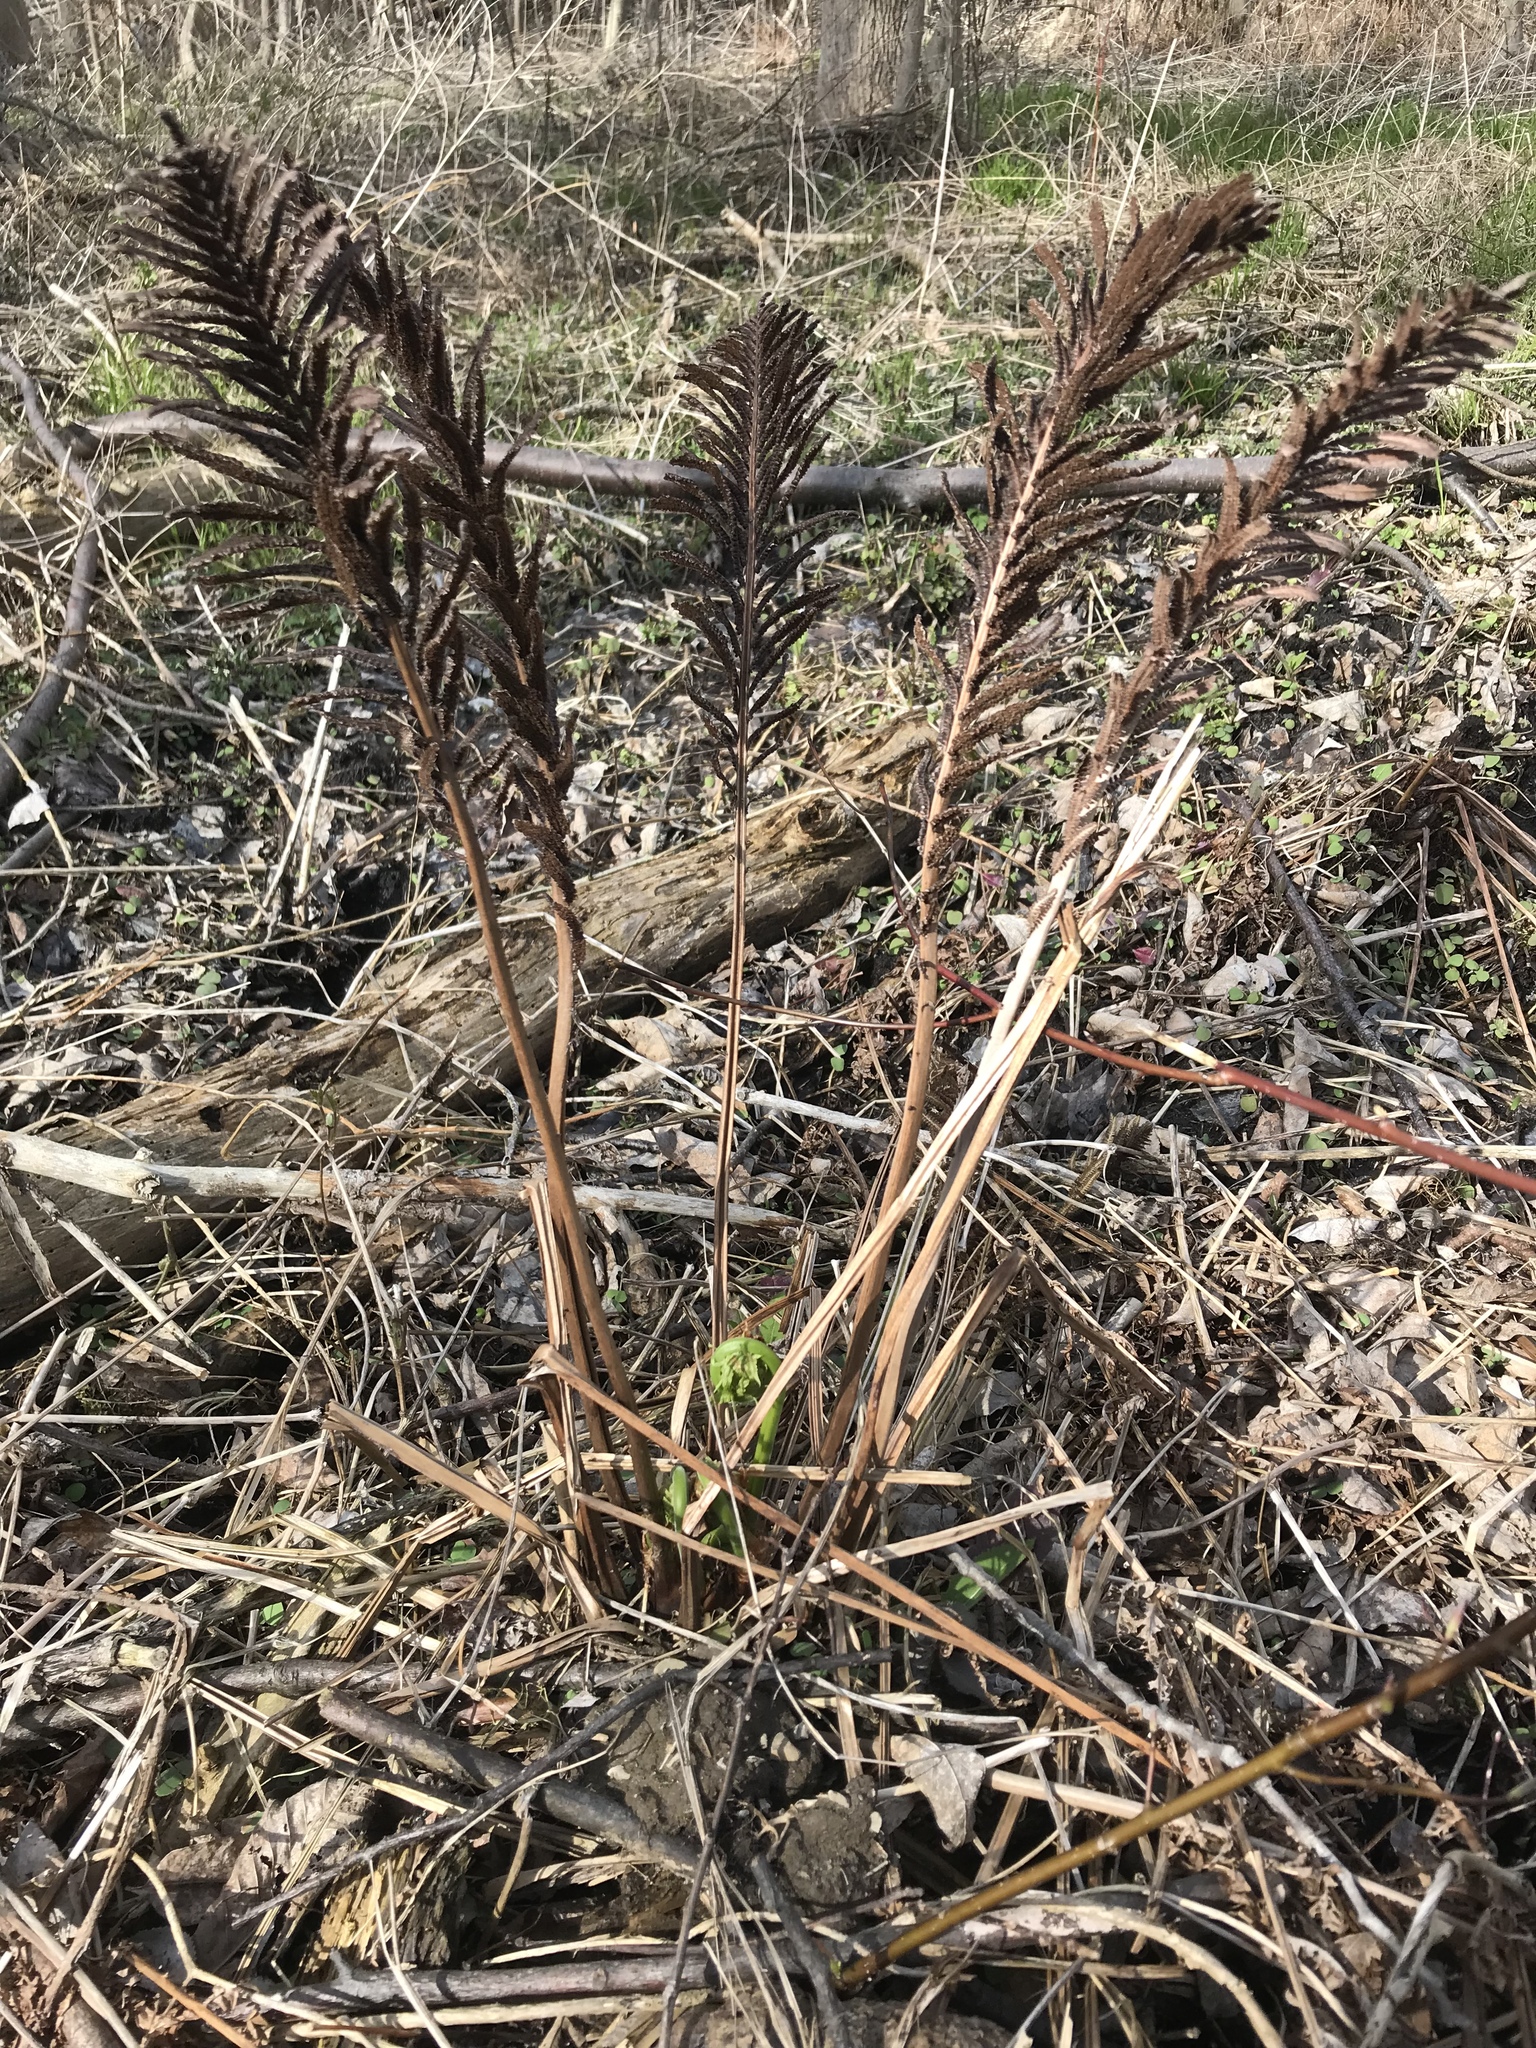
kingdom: Plantae
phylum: Tracheophyta
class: Polypodiopsida
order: Polypodiales
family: Onocleaceae
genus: Matteuccia
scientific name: Matteuccia struthiopteris
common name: Ostrich fern
